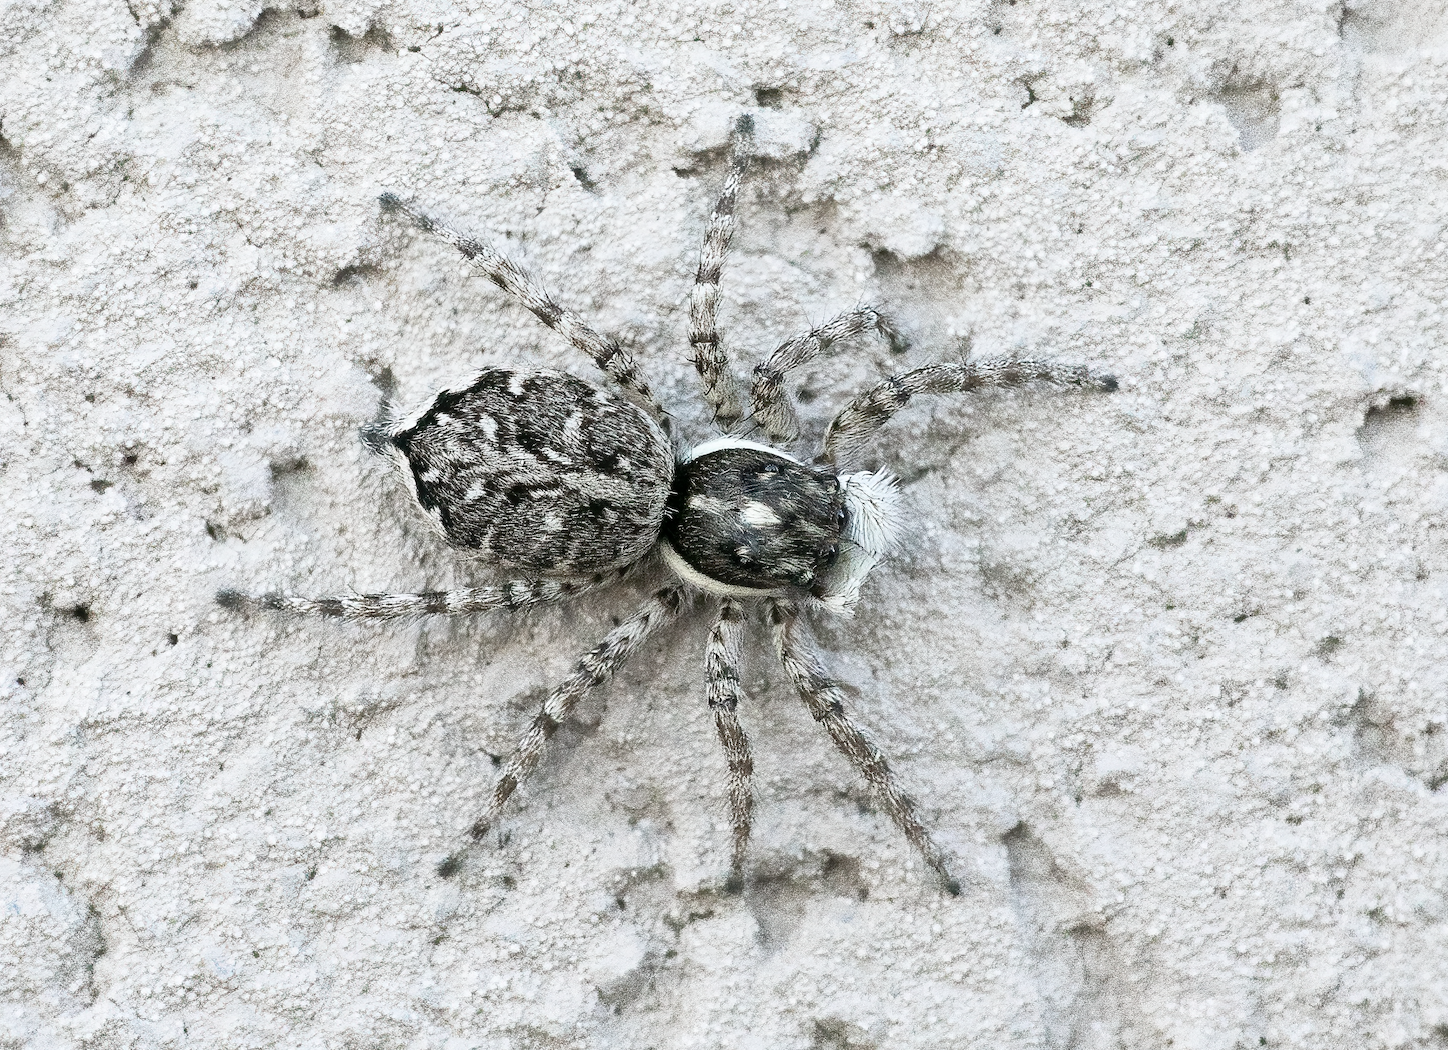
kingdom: Animalia
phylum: Arthropoda
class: Arachnida
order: Araneae
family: Salticidae
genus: Menemerus
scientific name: Menemerus semilimbatus
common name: Jumping spider
